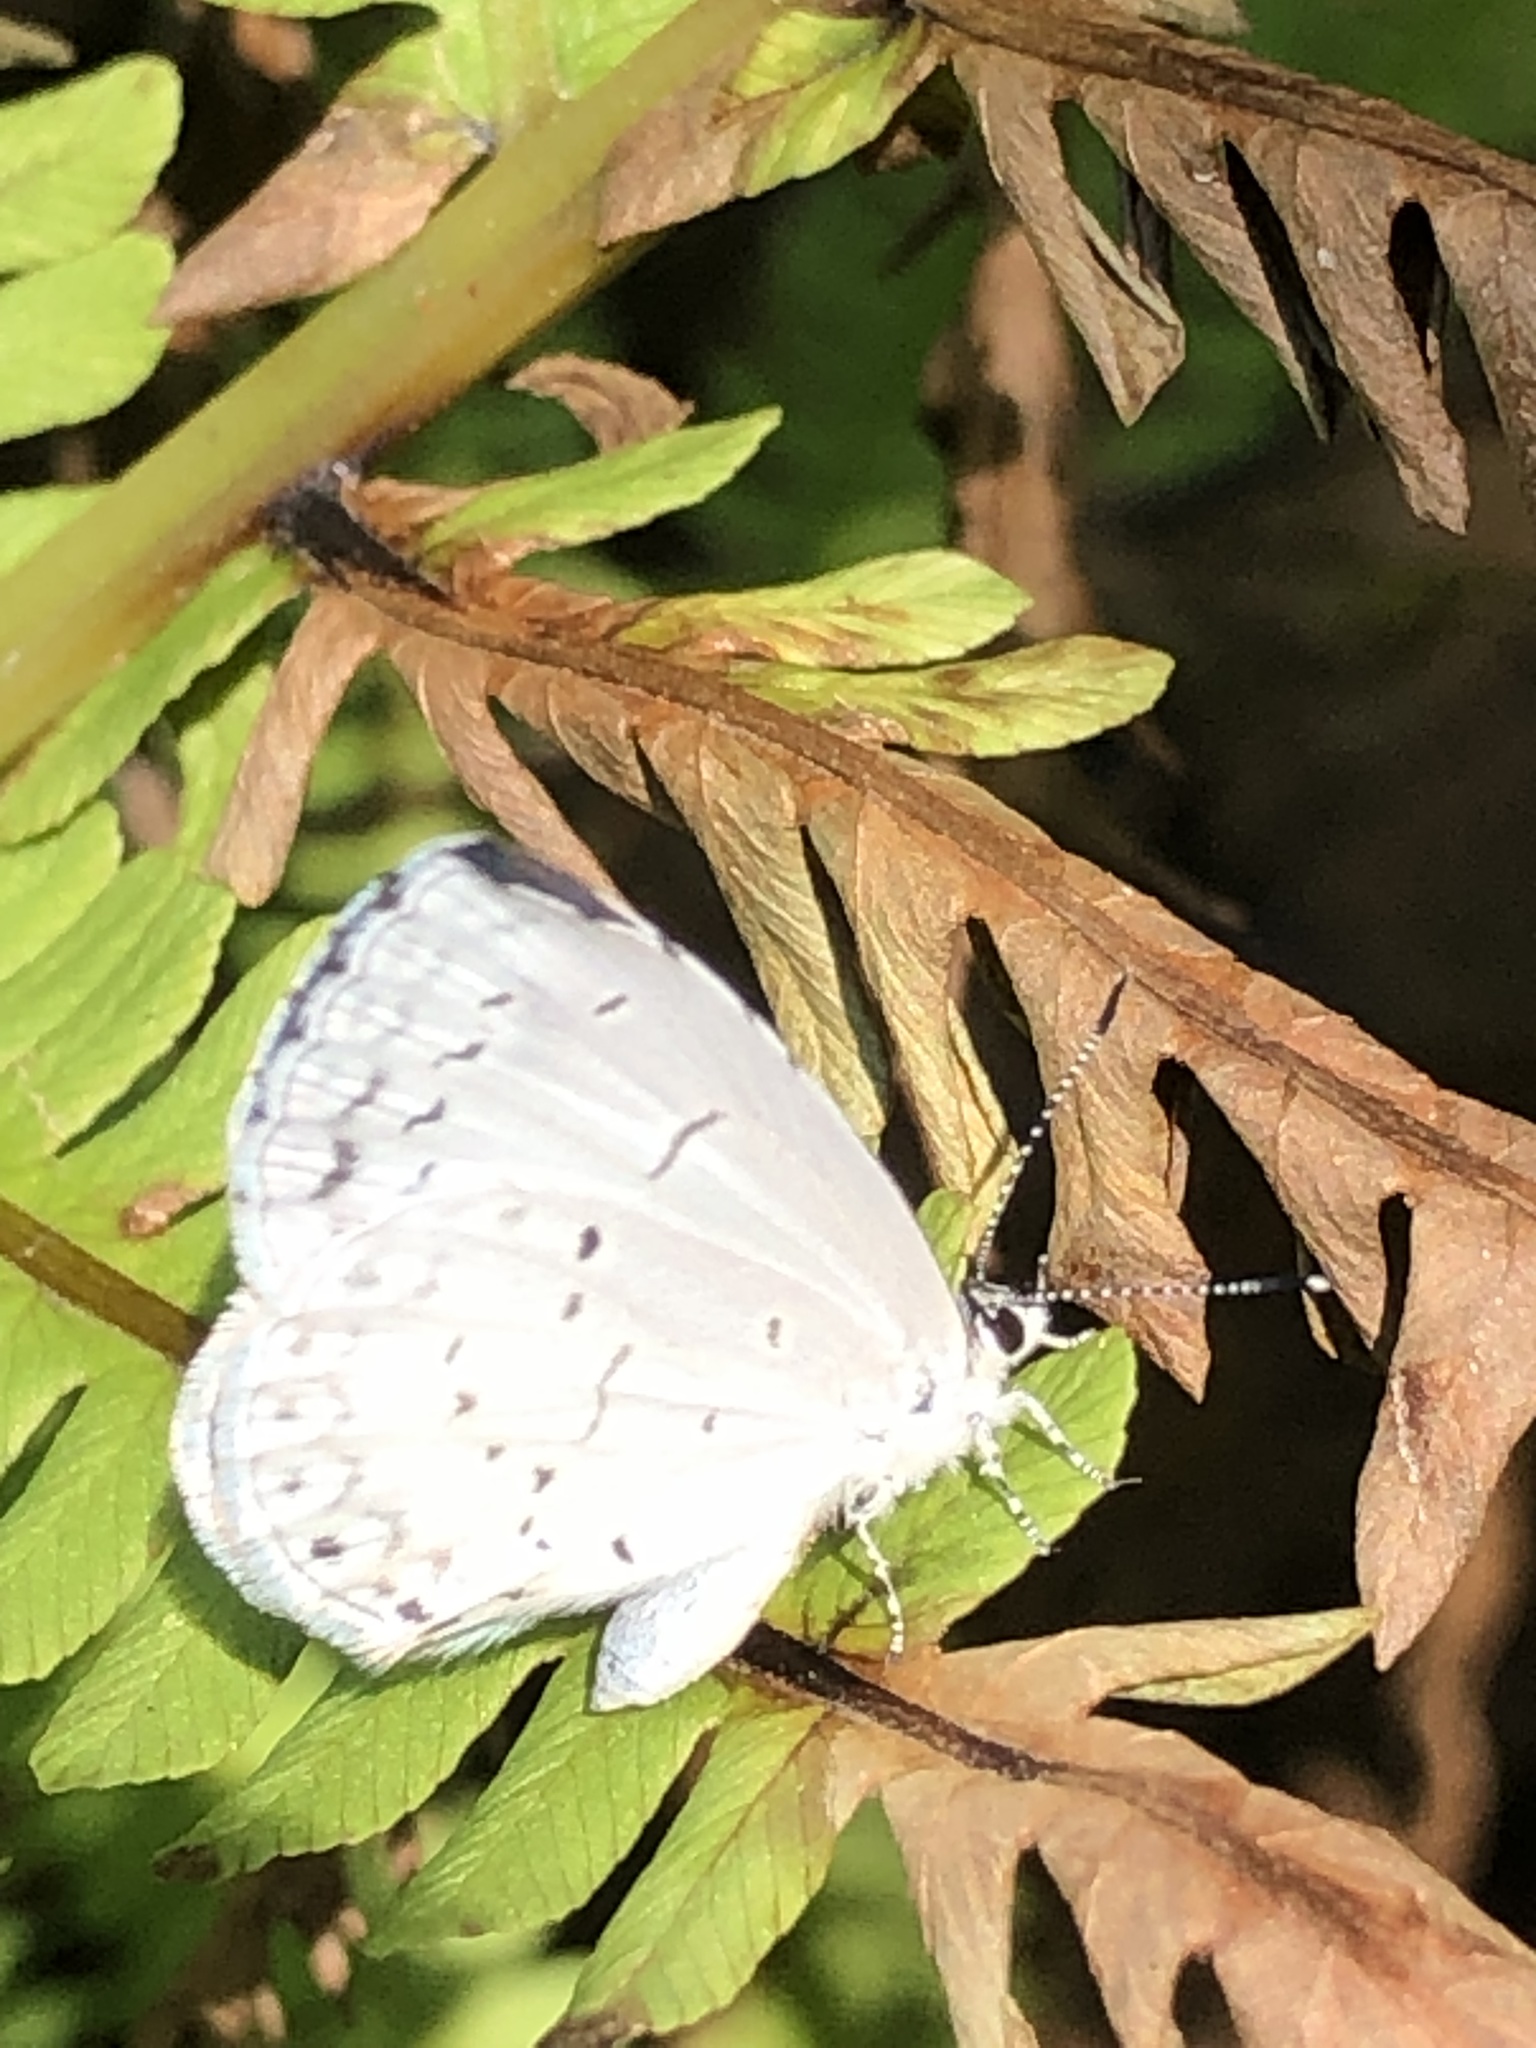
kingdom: Animalia
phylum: Arthropoda
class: Insecta
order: Lepidoptera
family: Lycaenidae
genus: Cyaniris
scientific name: Cyaniris neglecta
